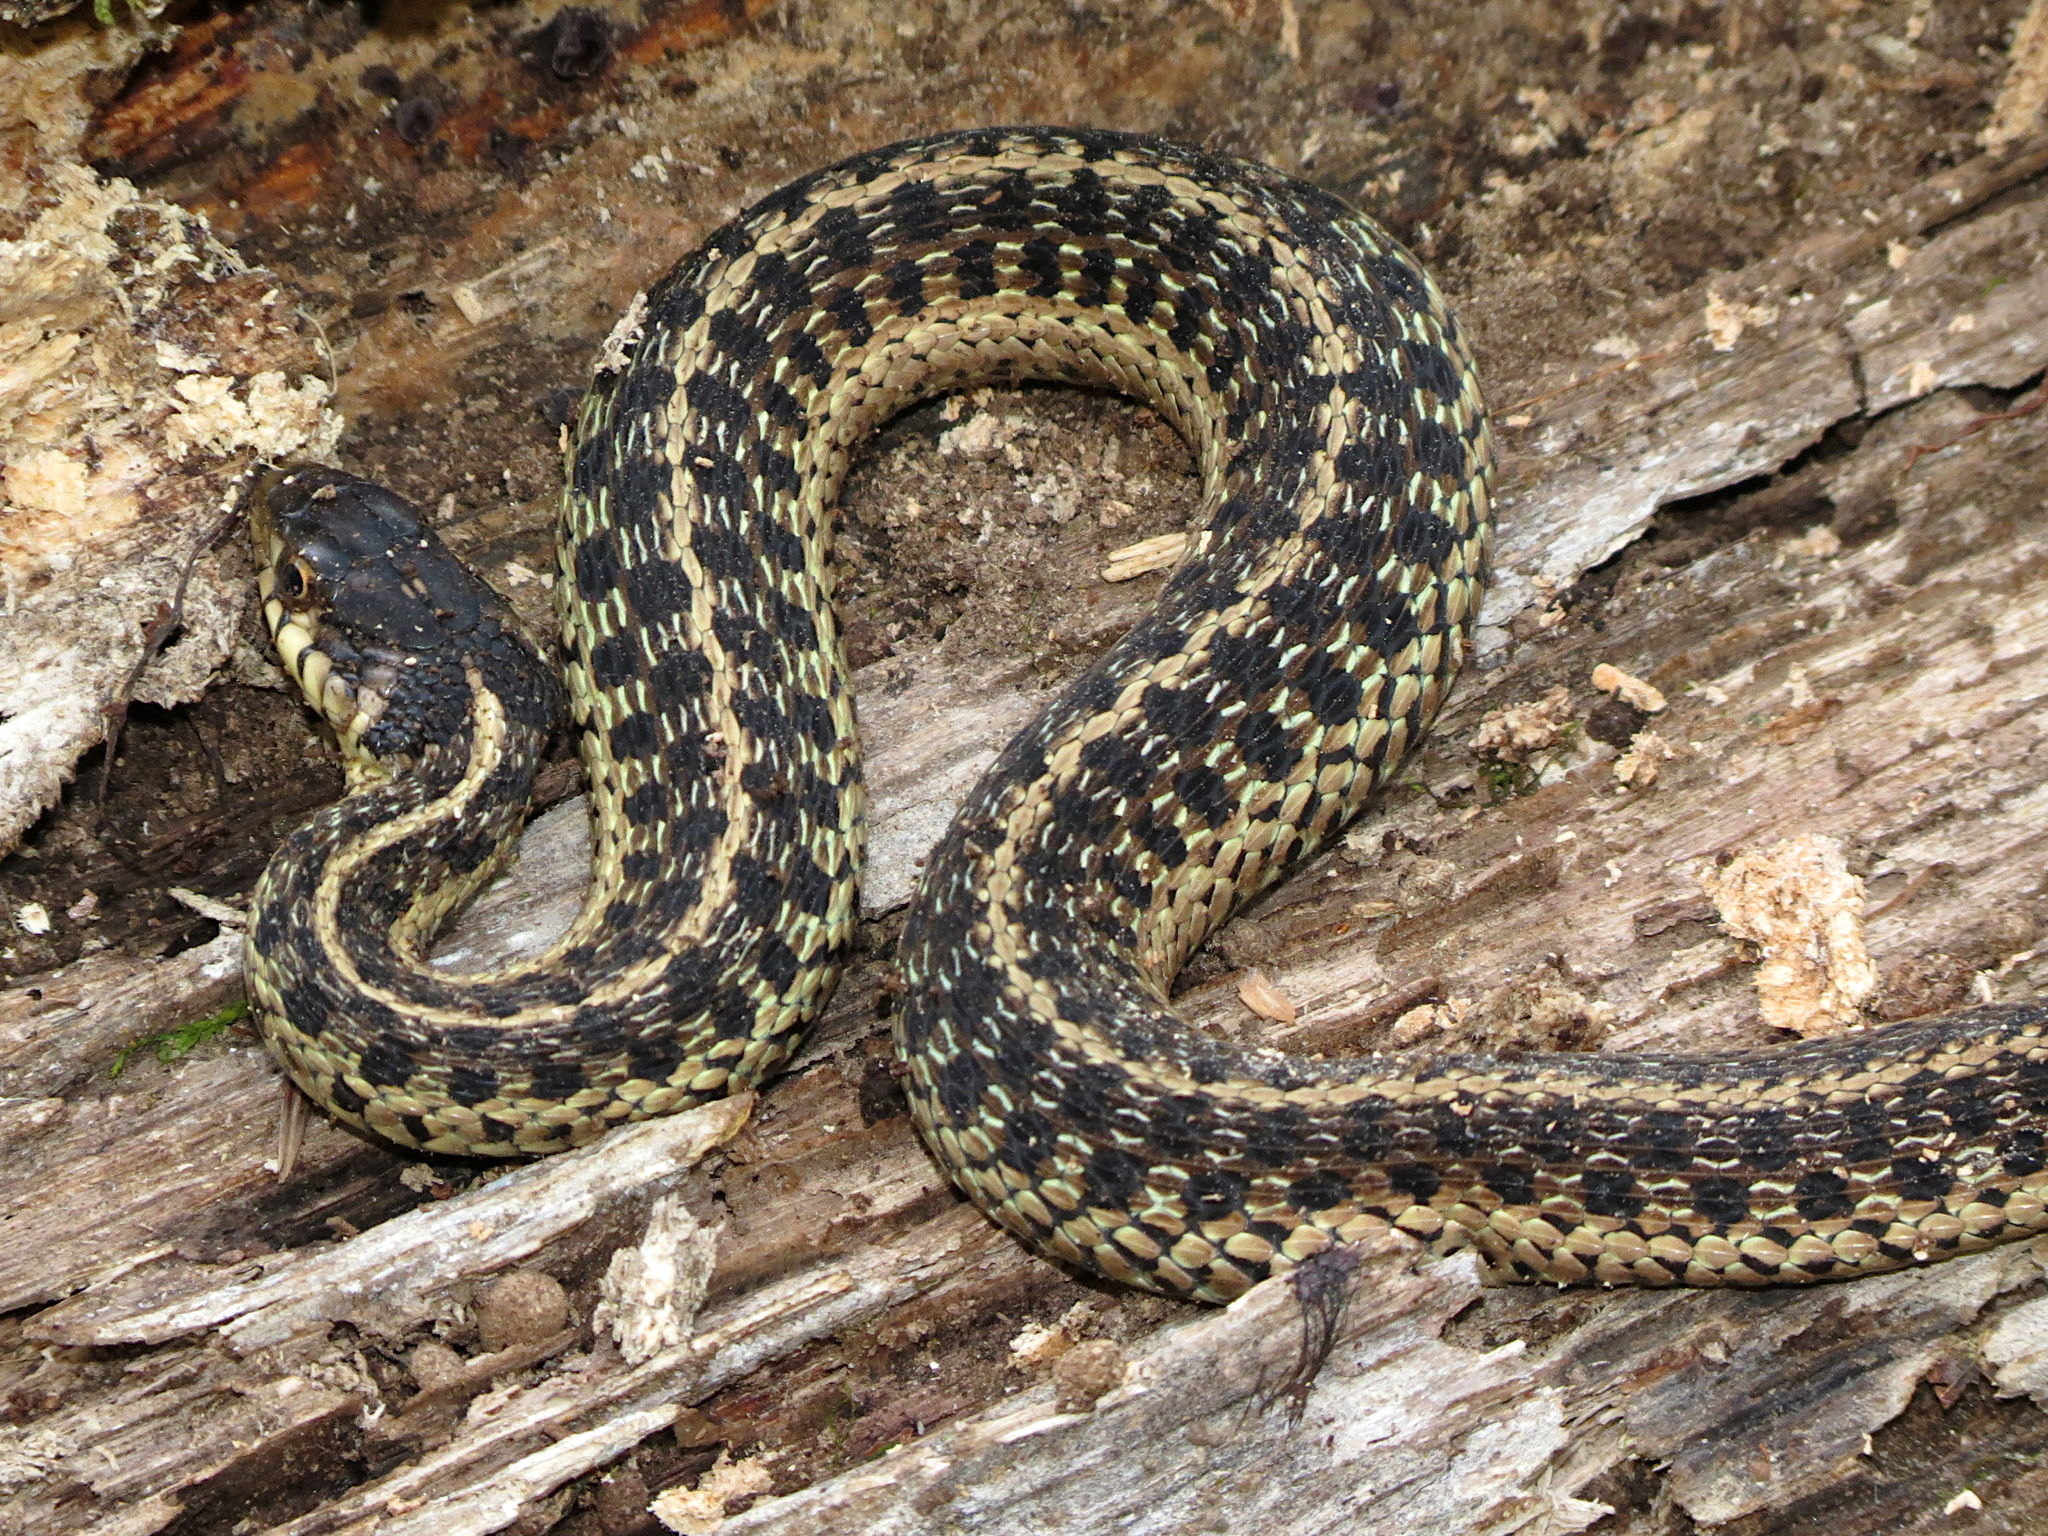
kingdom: Animalia
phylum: Chordata
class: Squamata
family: Colubridae
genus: Thamnophis
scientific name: Thamnophis sirtalis
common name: Common garter snake
